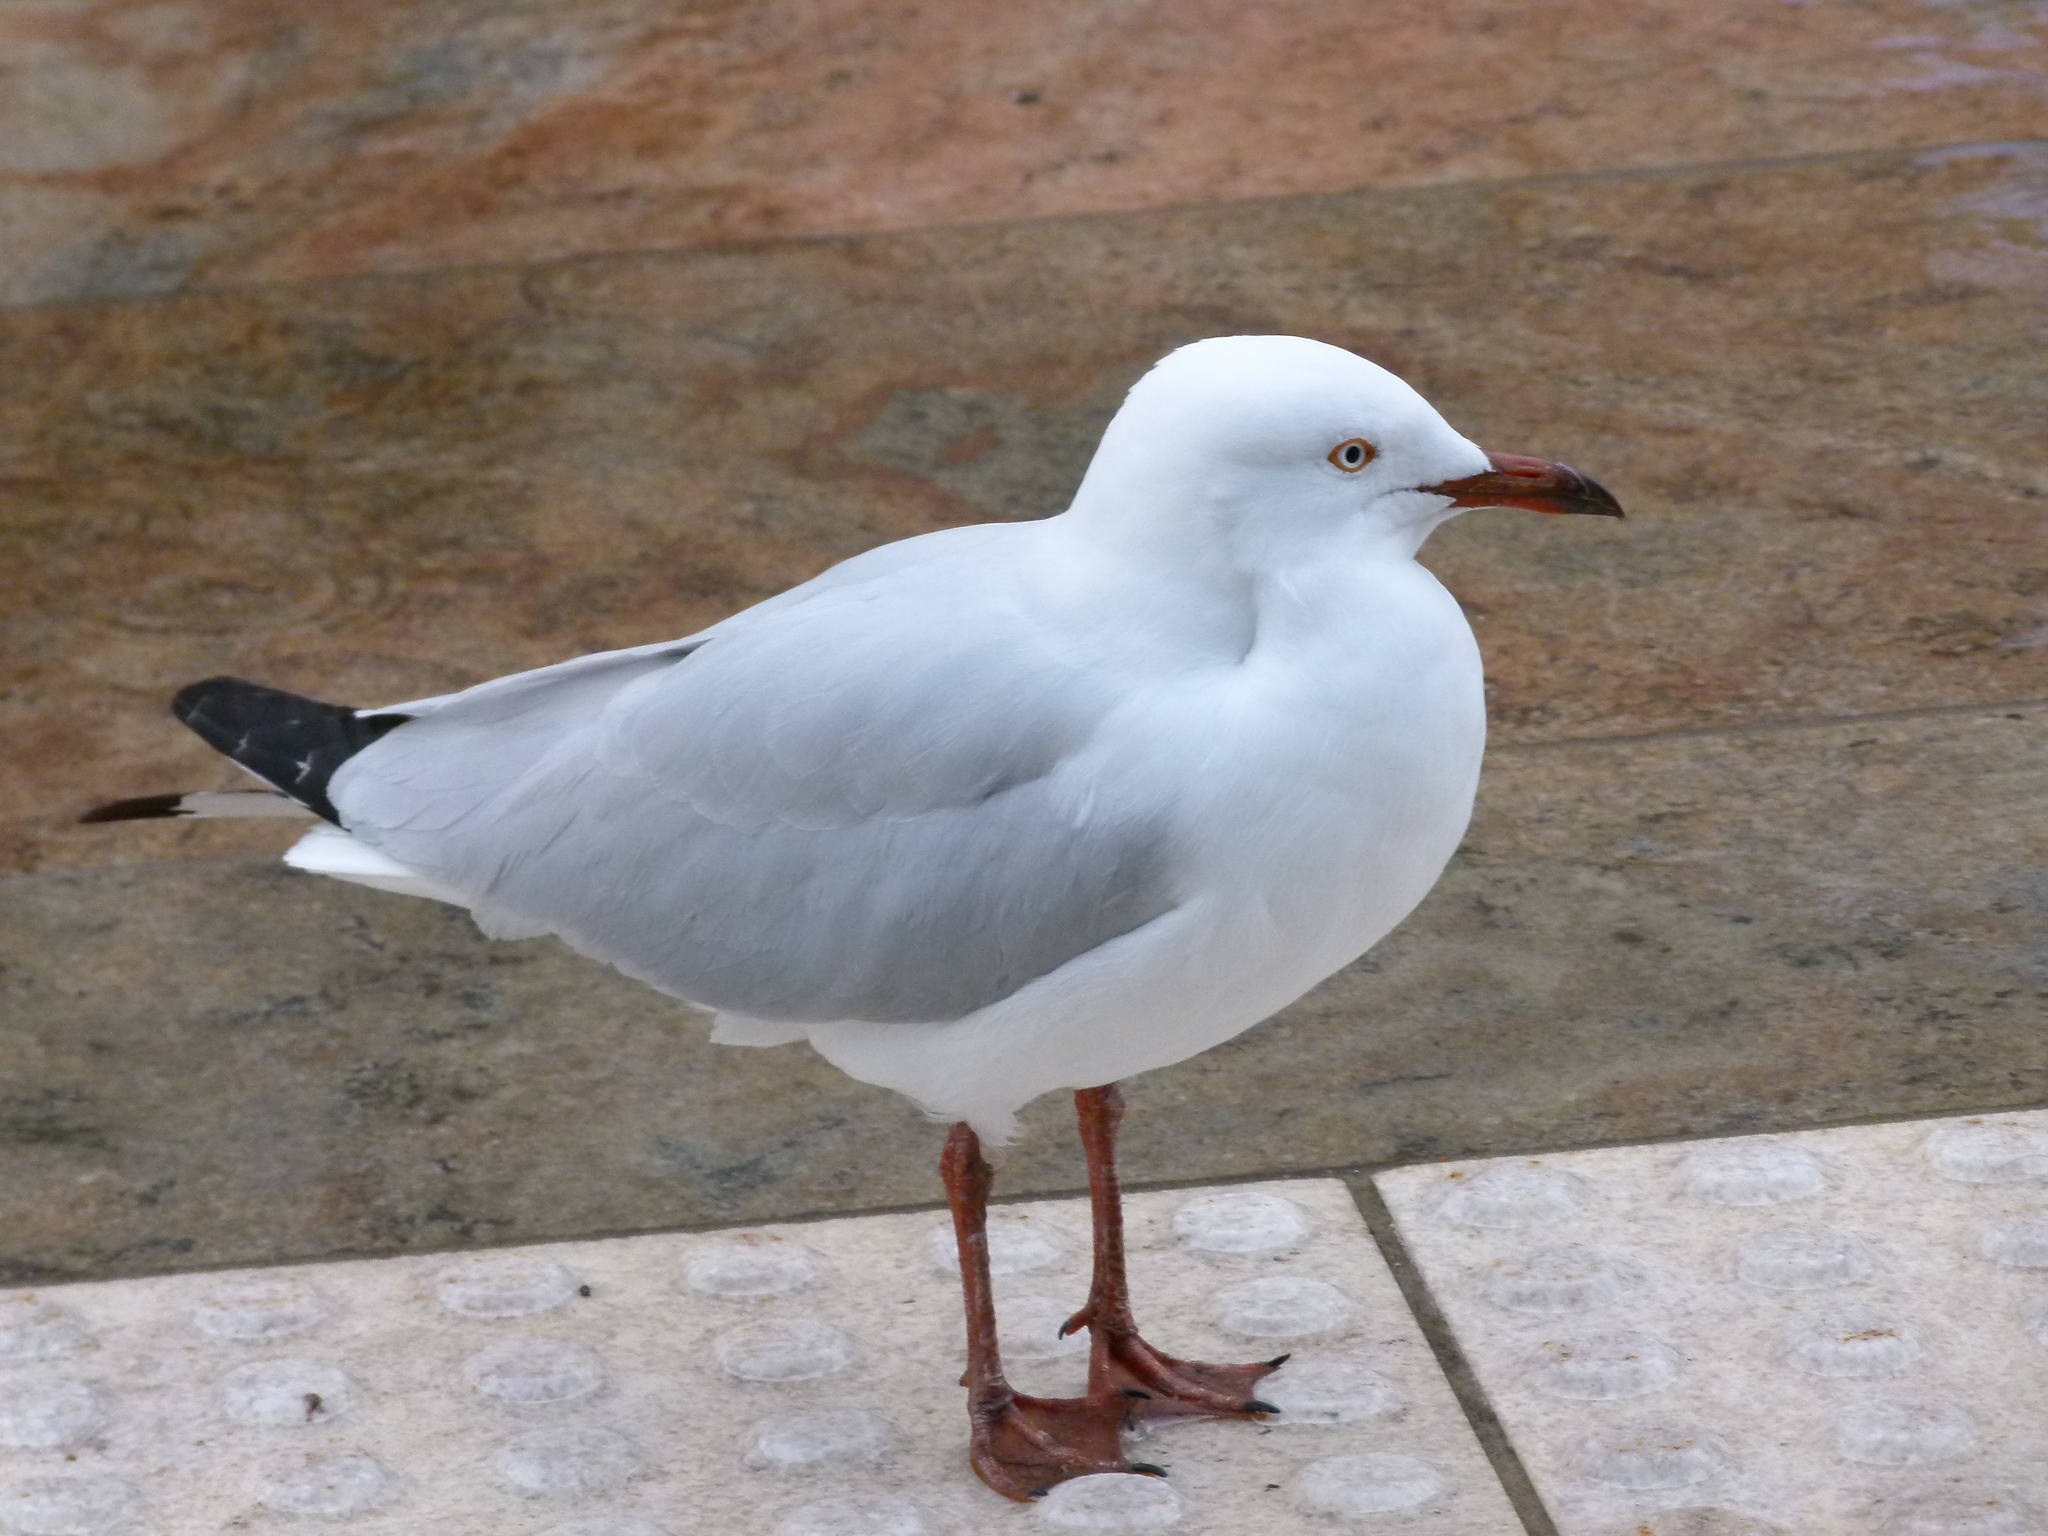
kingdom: Animalia
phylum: Chordata
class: Aves
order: Charadriiformes
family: Laridae
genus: Chroicocephalus
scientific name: Chroicocephalus novaehollandiae
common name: Silver gull
